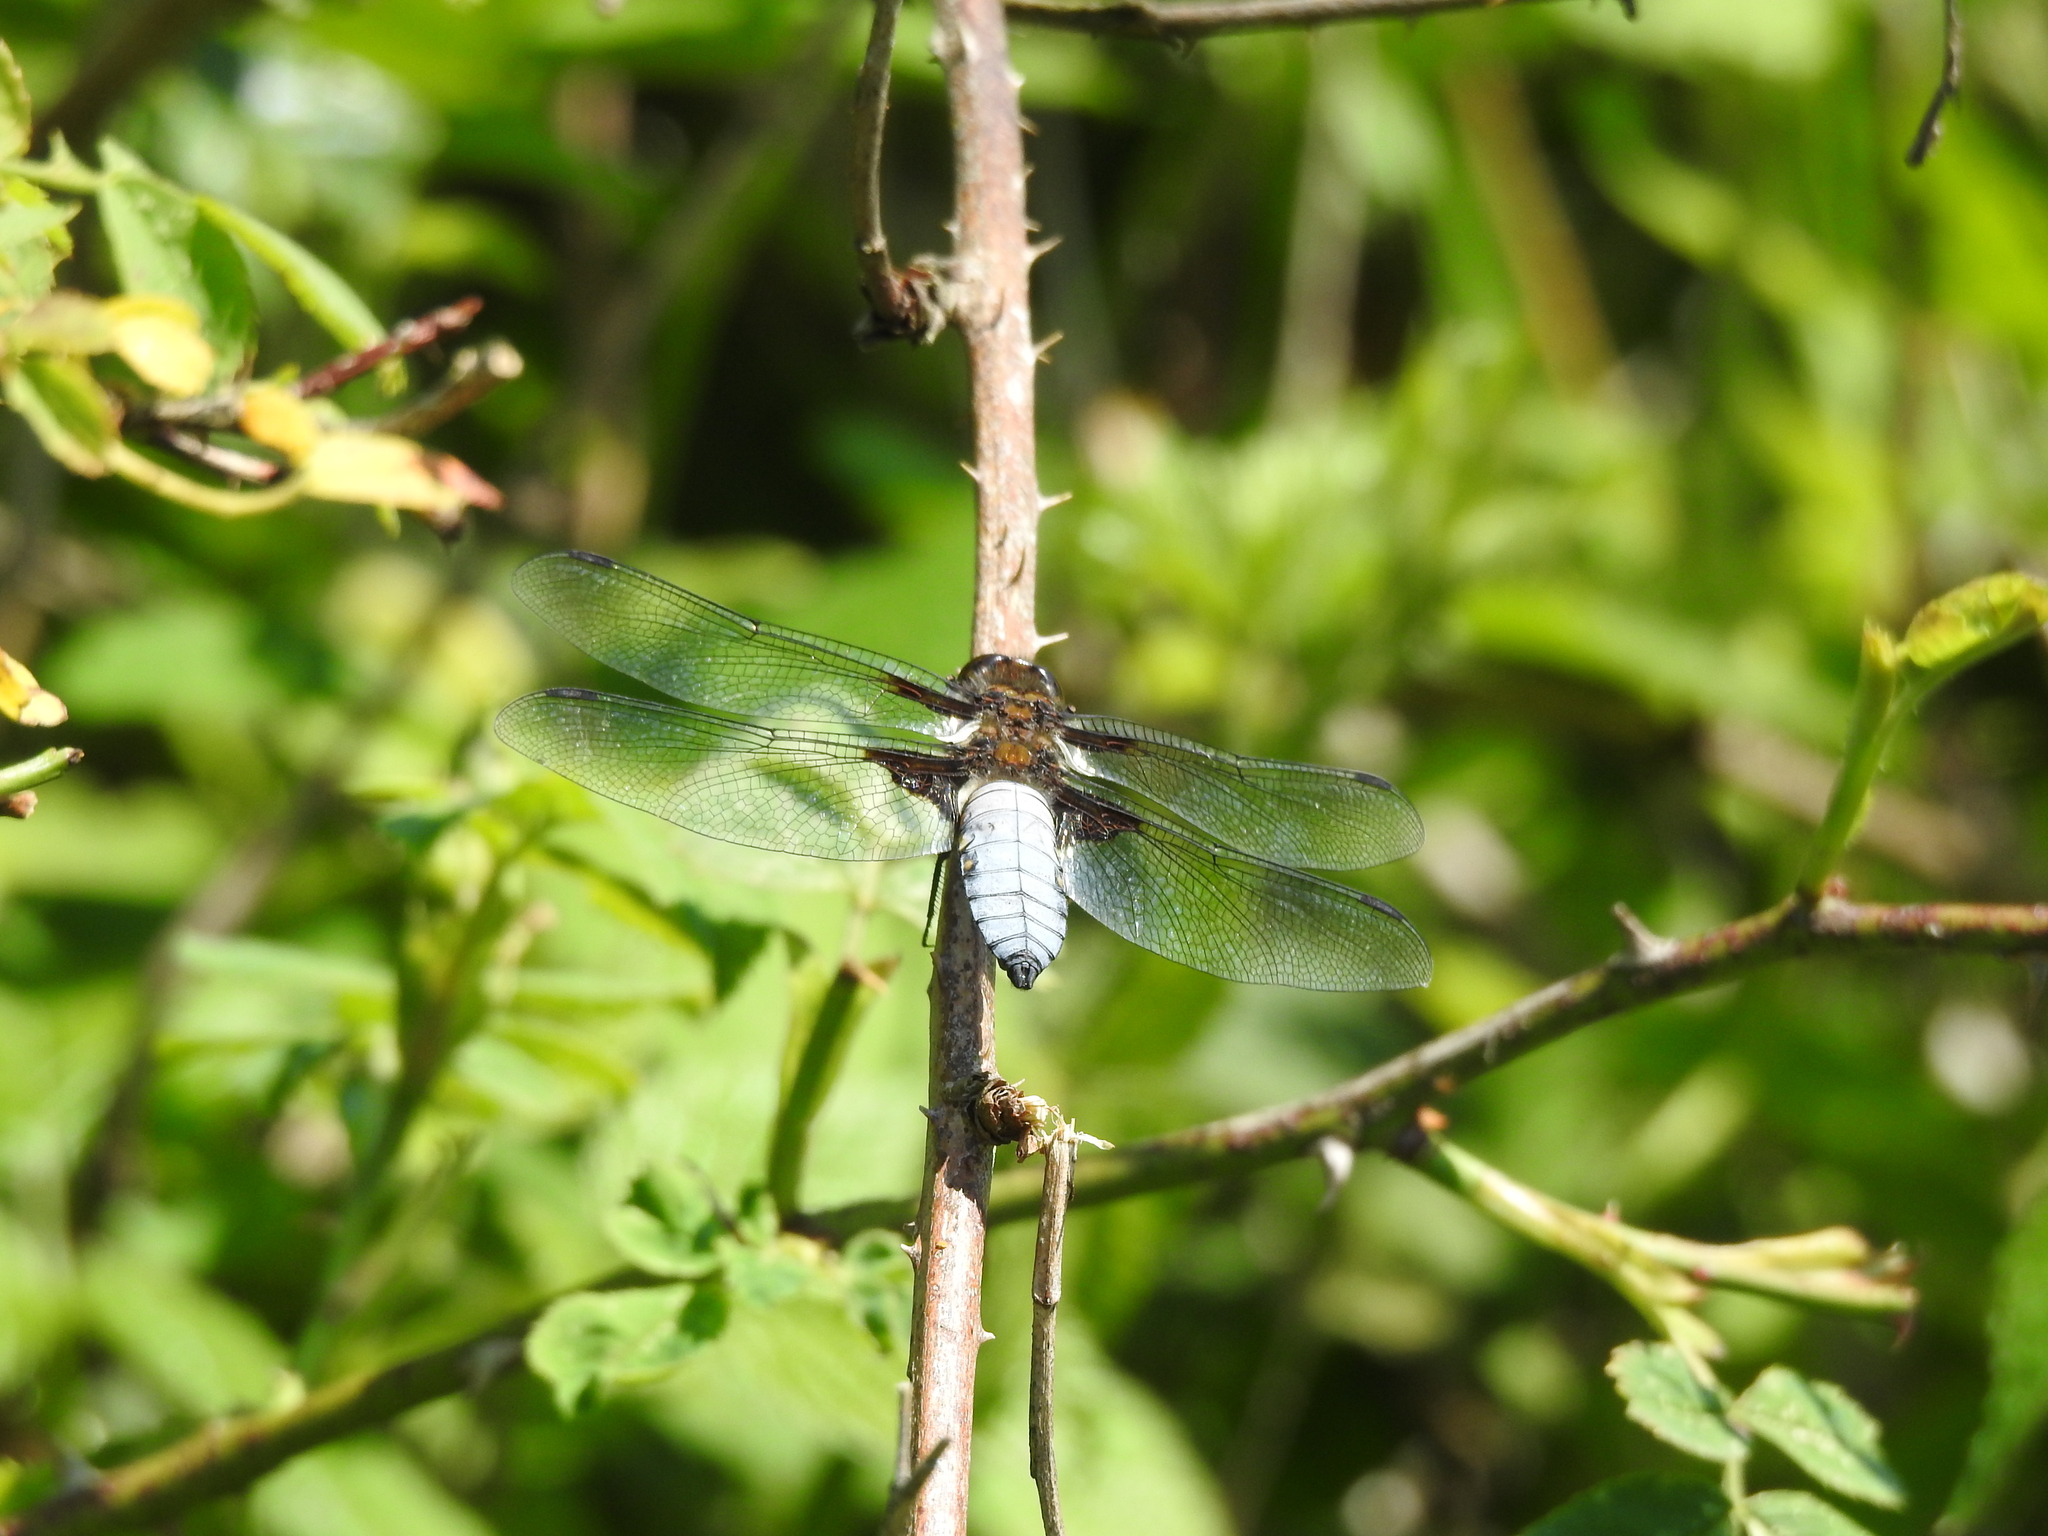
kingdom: Animalia
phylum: Arthropoda
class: Insecta
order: Odonata
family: Libellulidae
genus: Libellula
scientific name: Libellula depressa
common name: Broad-bodied chaser
